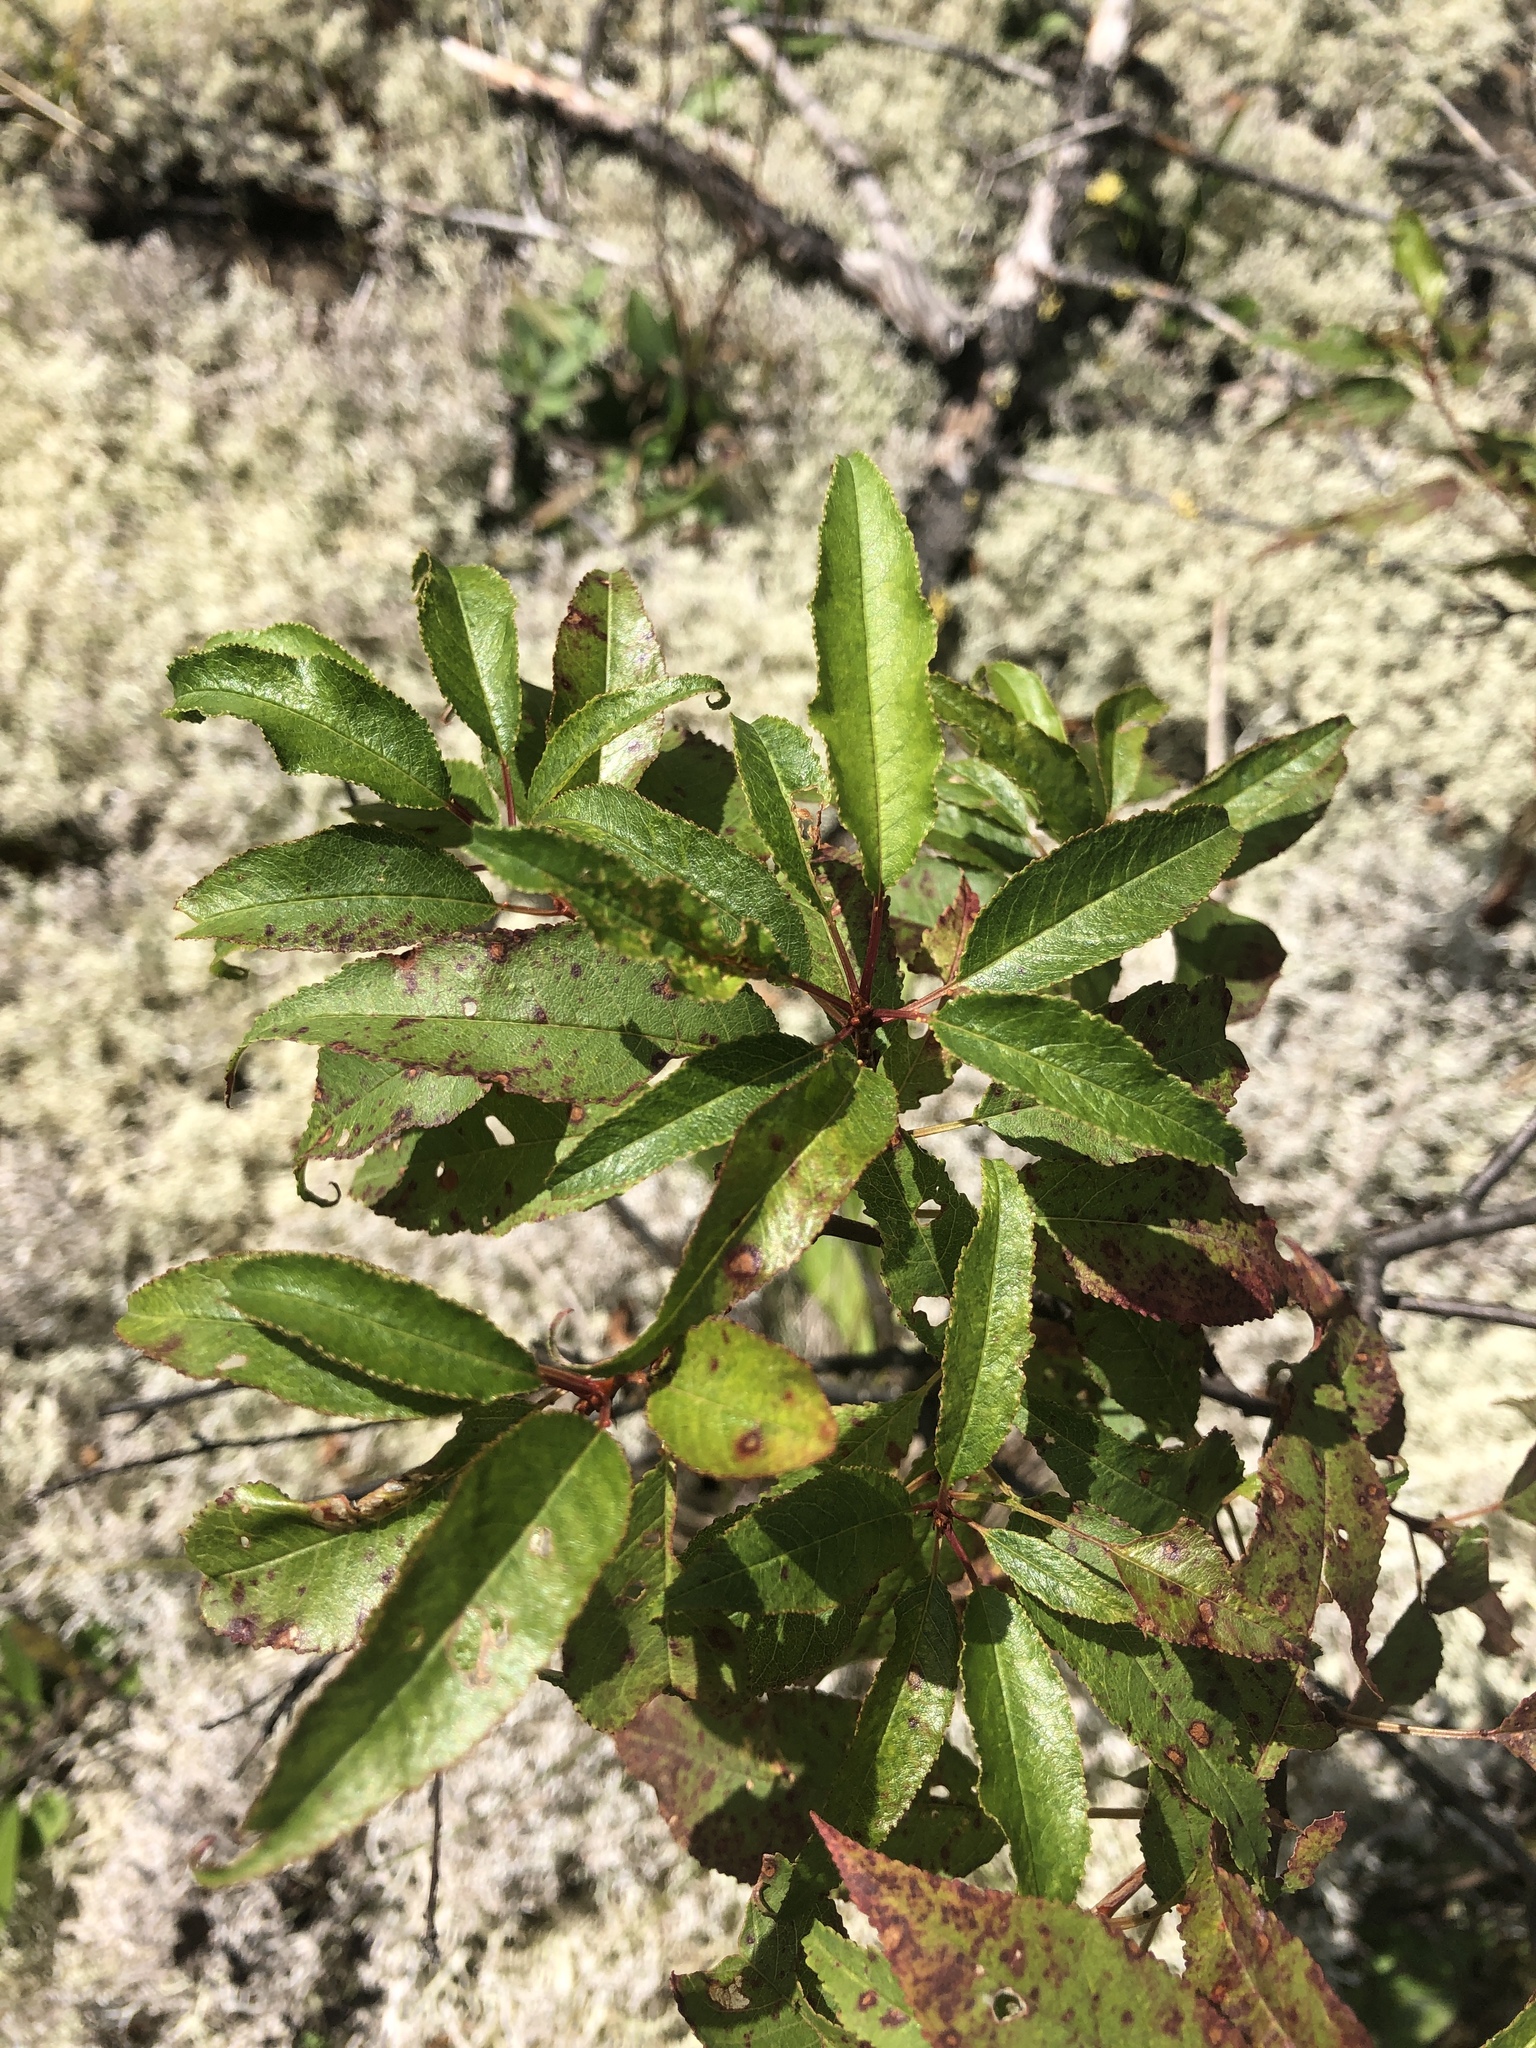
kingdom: Plantae
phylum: Tracheophyta
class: Magnoliopsida
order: Rosales
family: Rosaceae
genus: Prunus
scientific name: Prunus pensylvanica
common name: Pin cherry
